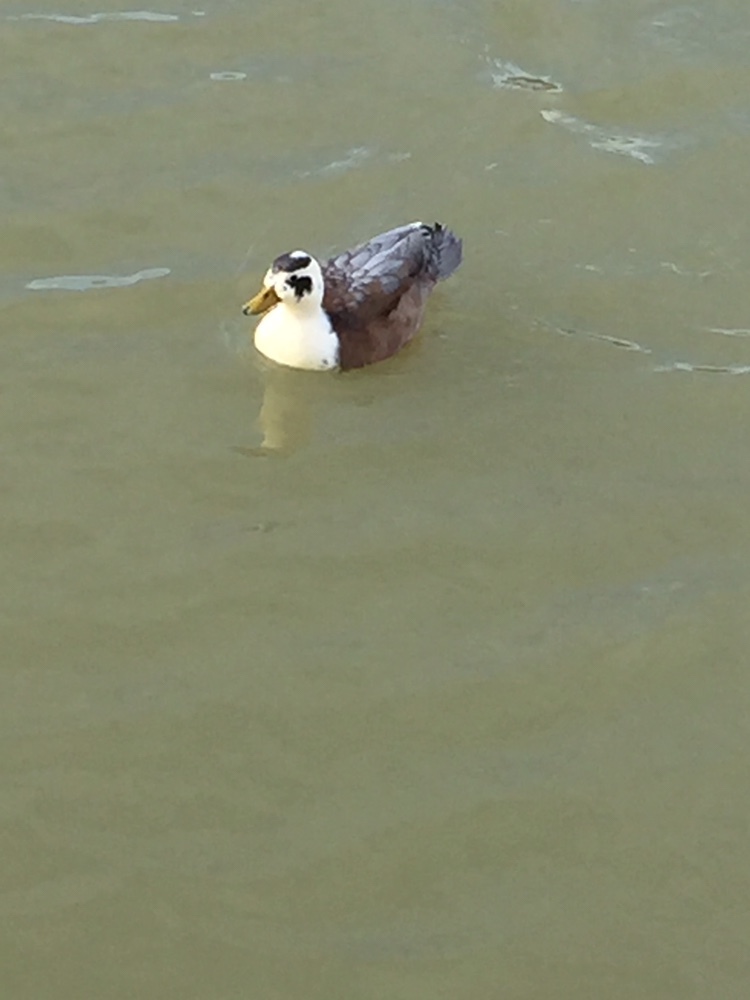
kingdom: Animalia
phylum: Chordata
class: Aves
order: Anseriformes
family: Anatidae
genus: Anas
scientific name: Anas platyrhynchos
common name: Mallard
